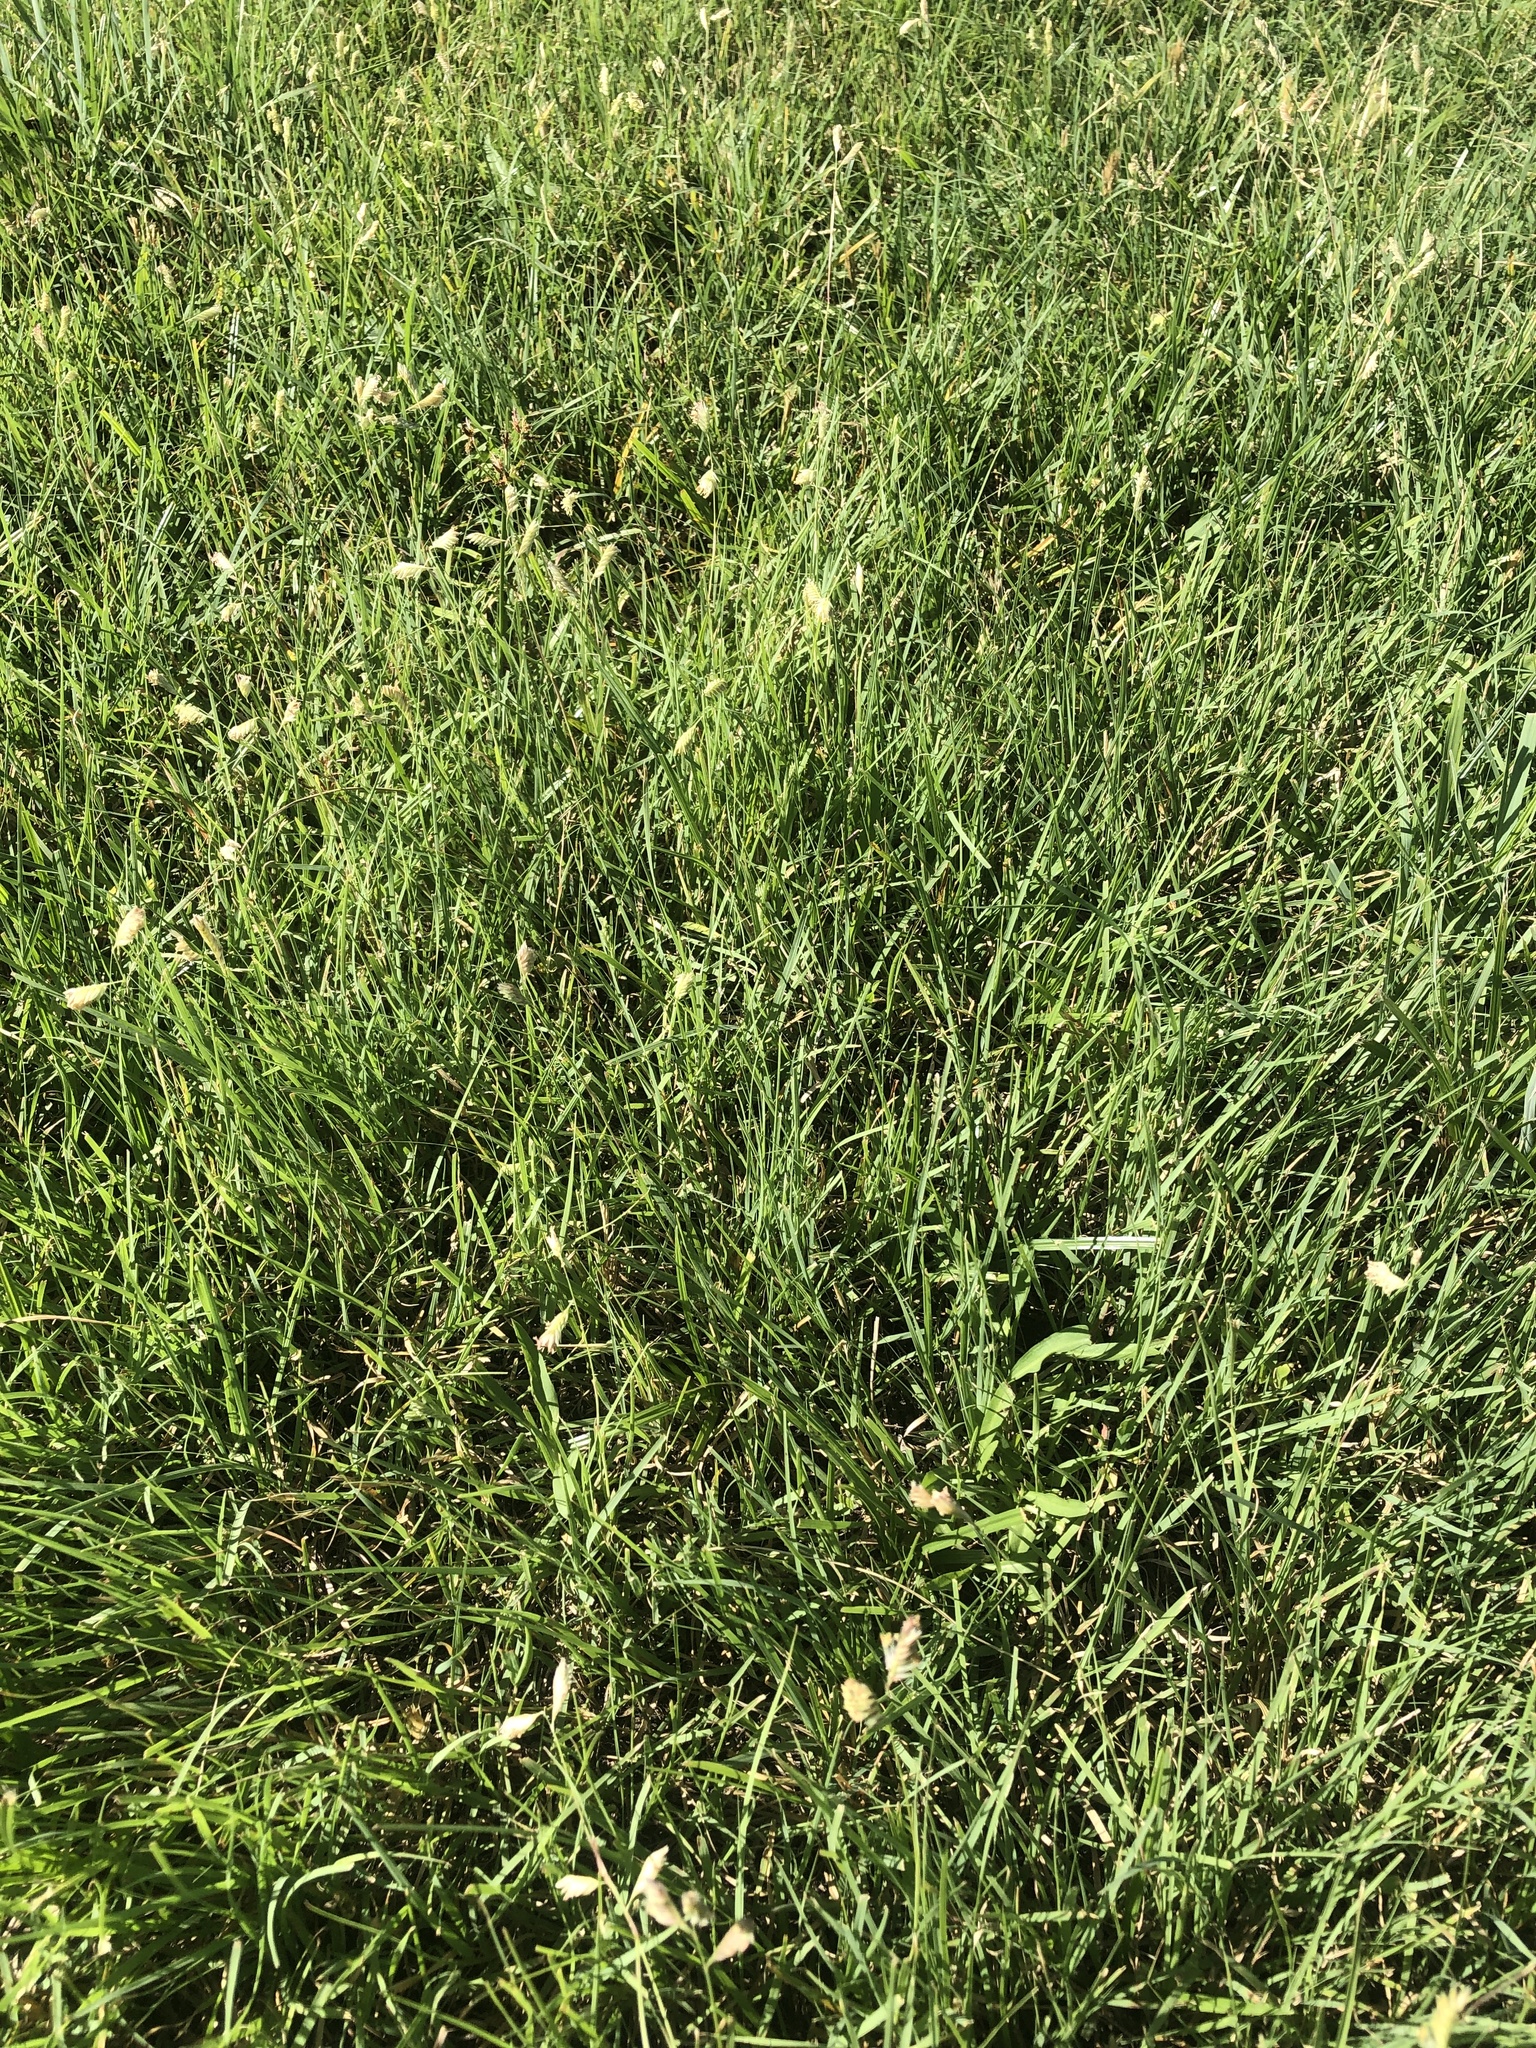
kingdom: Plantae
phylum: Tracheophyta
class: Liliopsida
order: Poales
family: Poaceae
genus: Bouteloua
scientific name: Bouteloua dactyloides
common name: Buffalo grass
